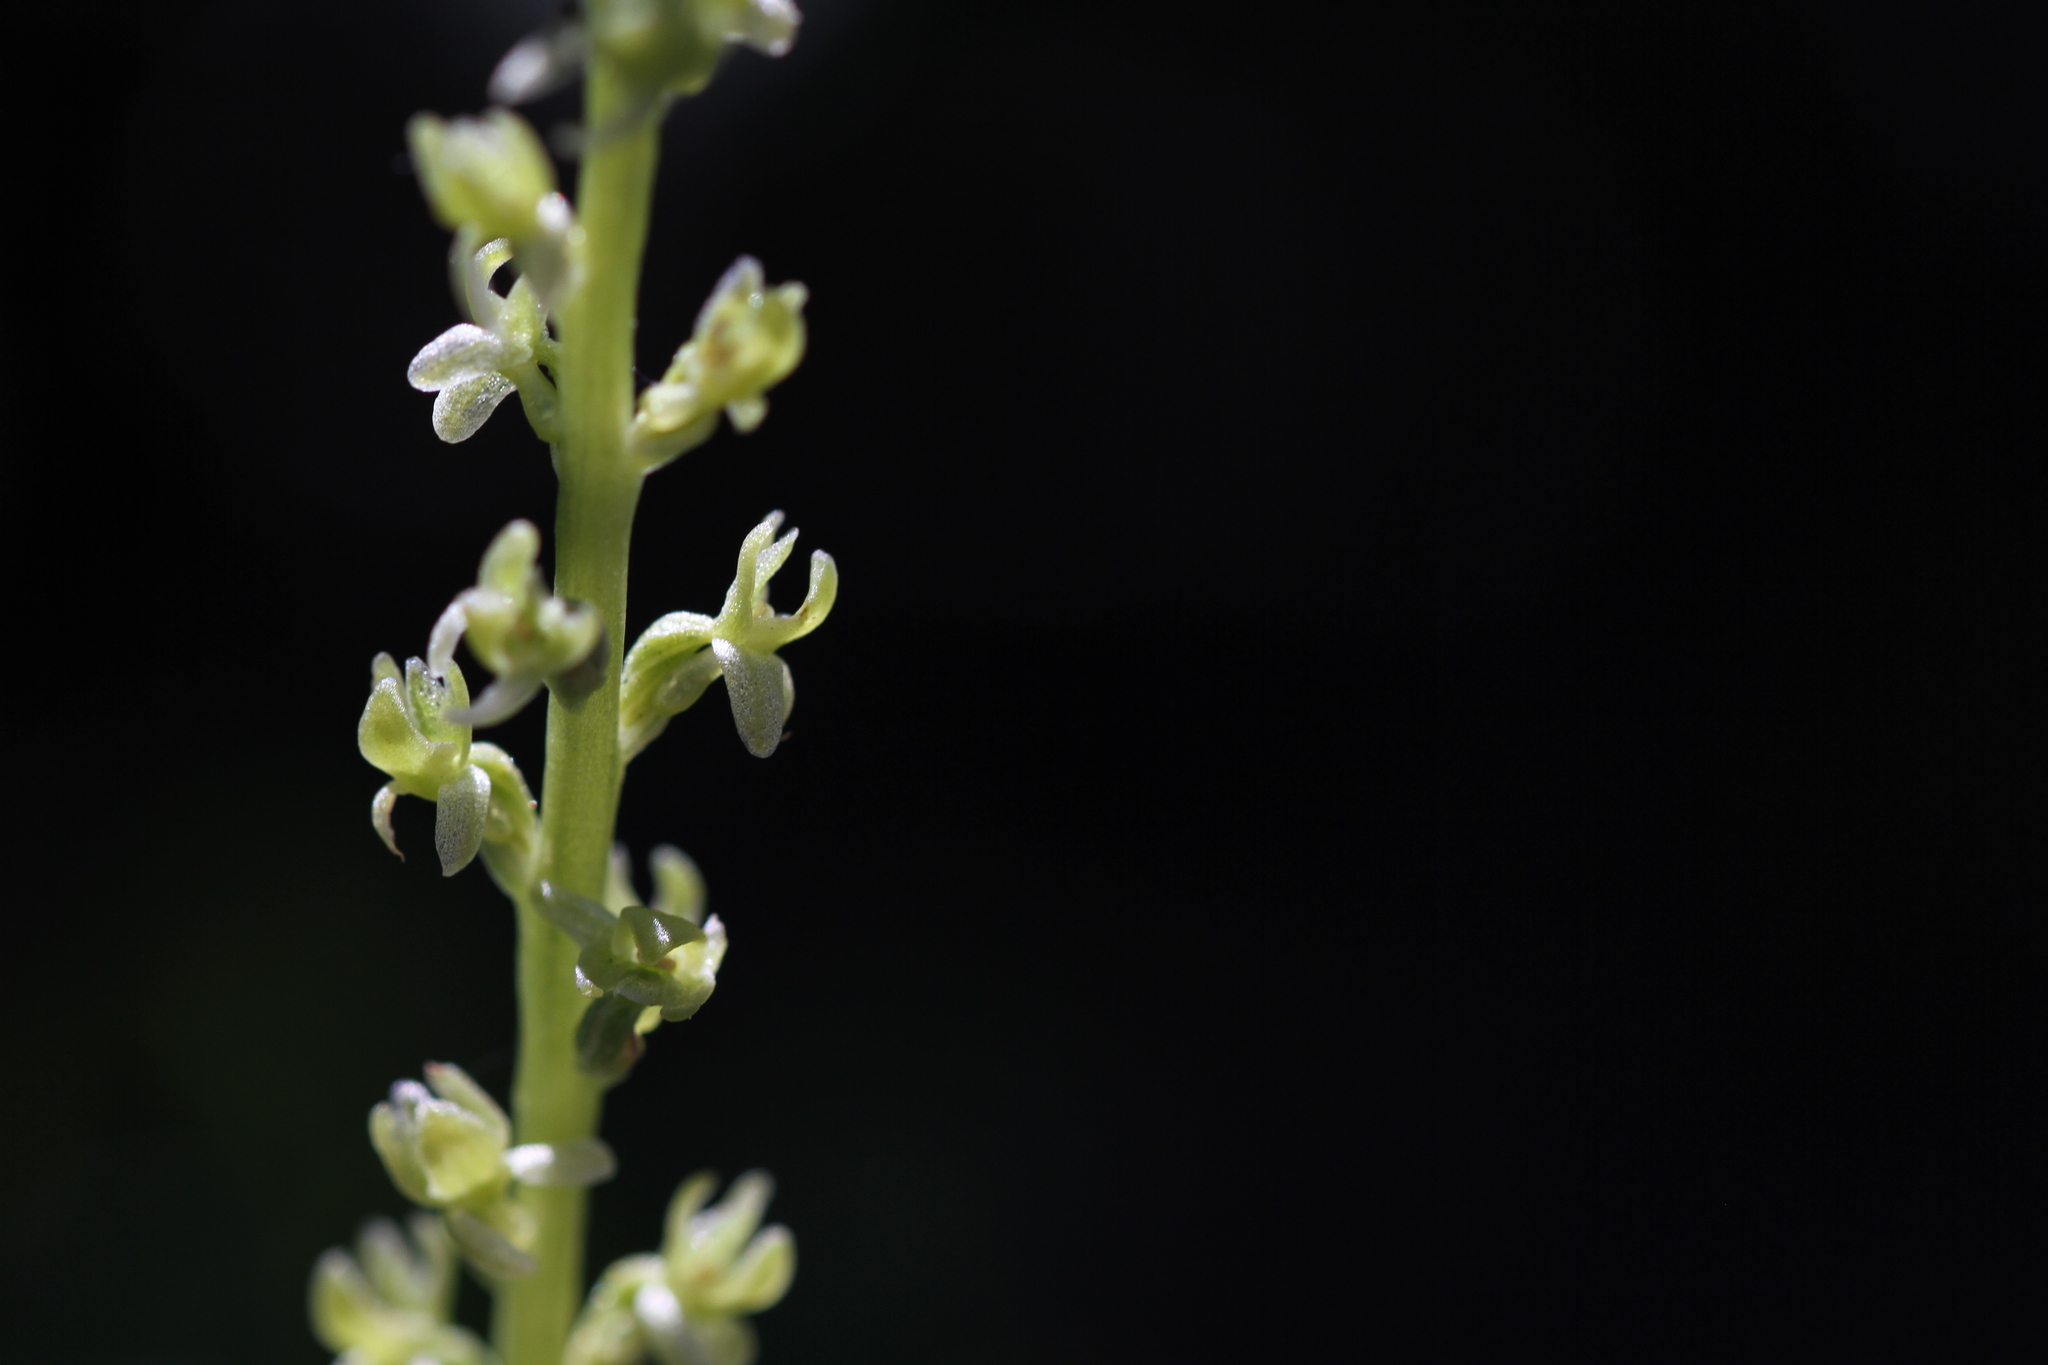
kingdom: Plantae
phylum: Tracheophyta
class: Liliopsida
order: Asparagales
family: Orchidaceae
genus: Platanthera
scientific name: Platanthera colemanii
